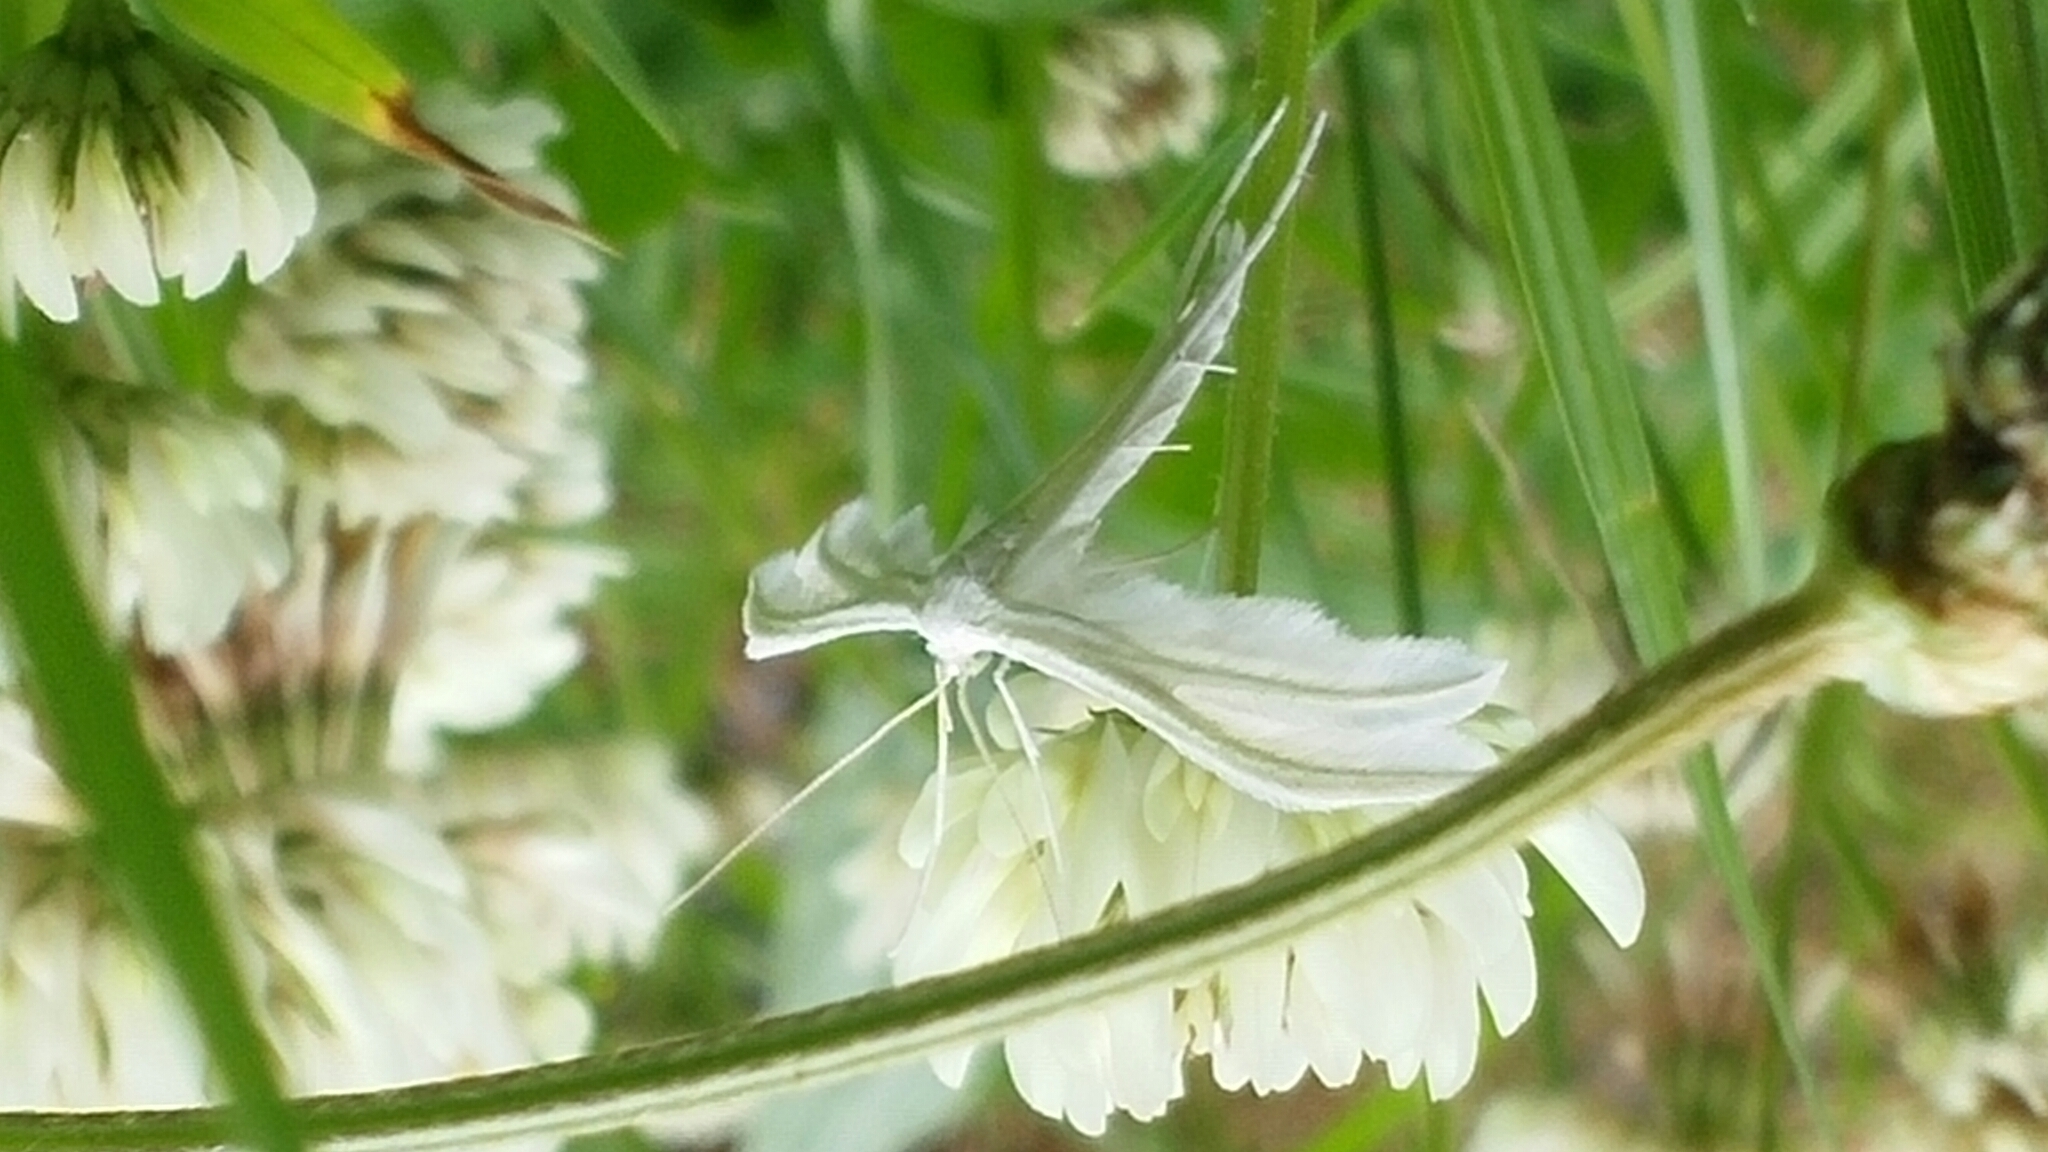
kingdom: Animalia
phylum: Arthropoda
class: Insecta
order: Lepidoptera
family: Pterophoridae
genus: Pterophorus
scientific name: Pterophorus pentadactyla
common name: White plume moth
